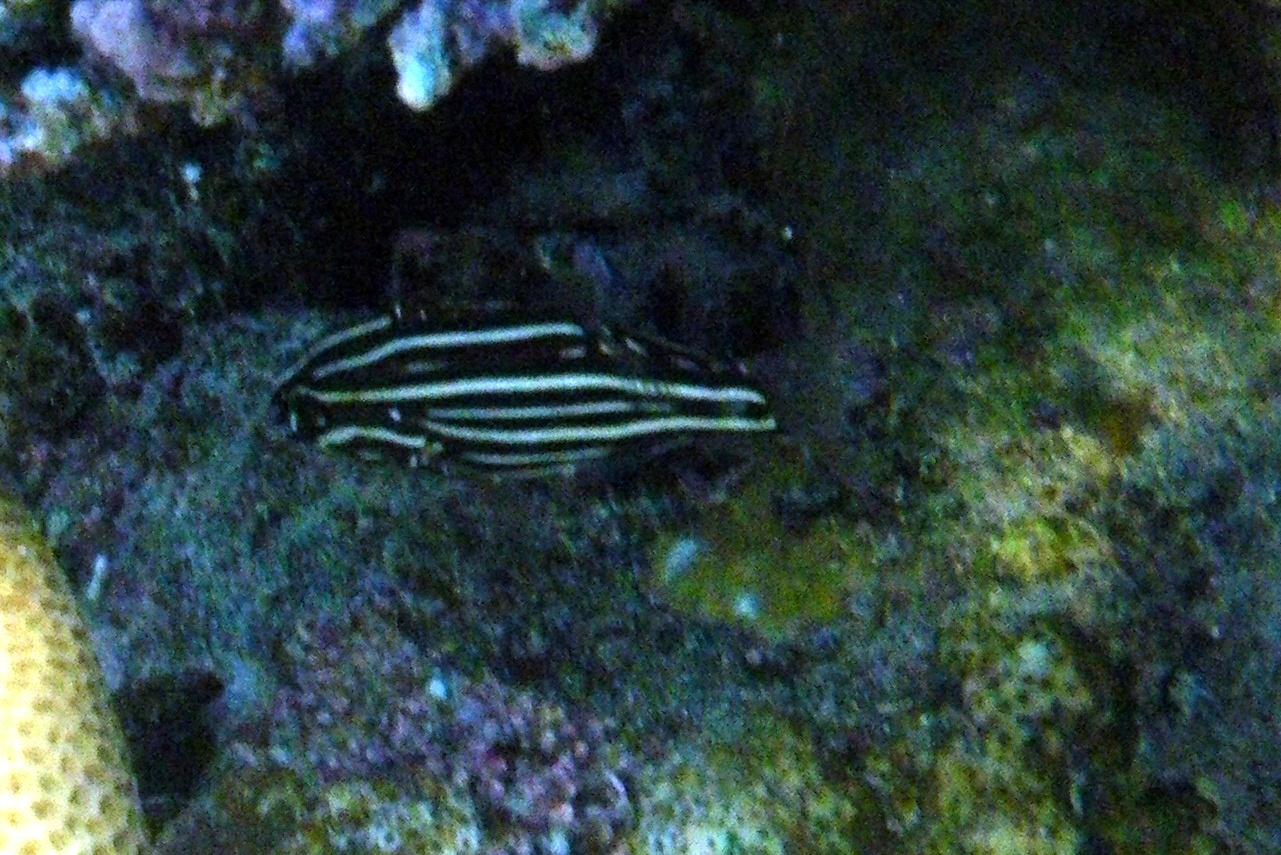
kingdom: Animalia
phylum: Chordata
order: Perciformes
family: Serranidae
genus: Grammistes
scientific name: Grammistes sexlineatus
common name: Sixline soapfish
